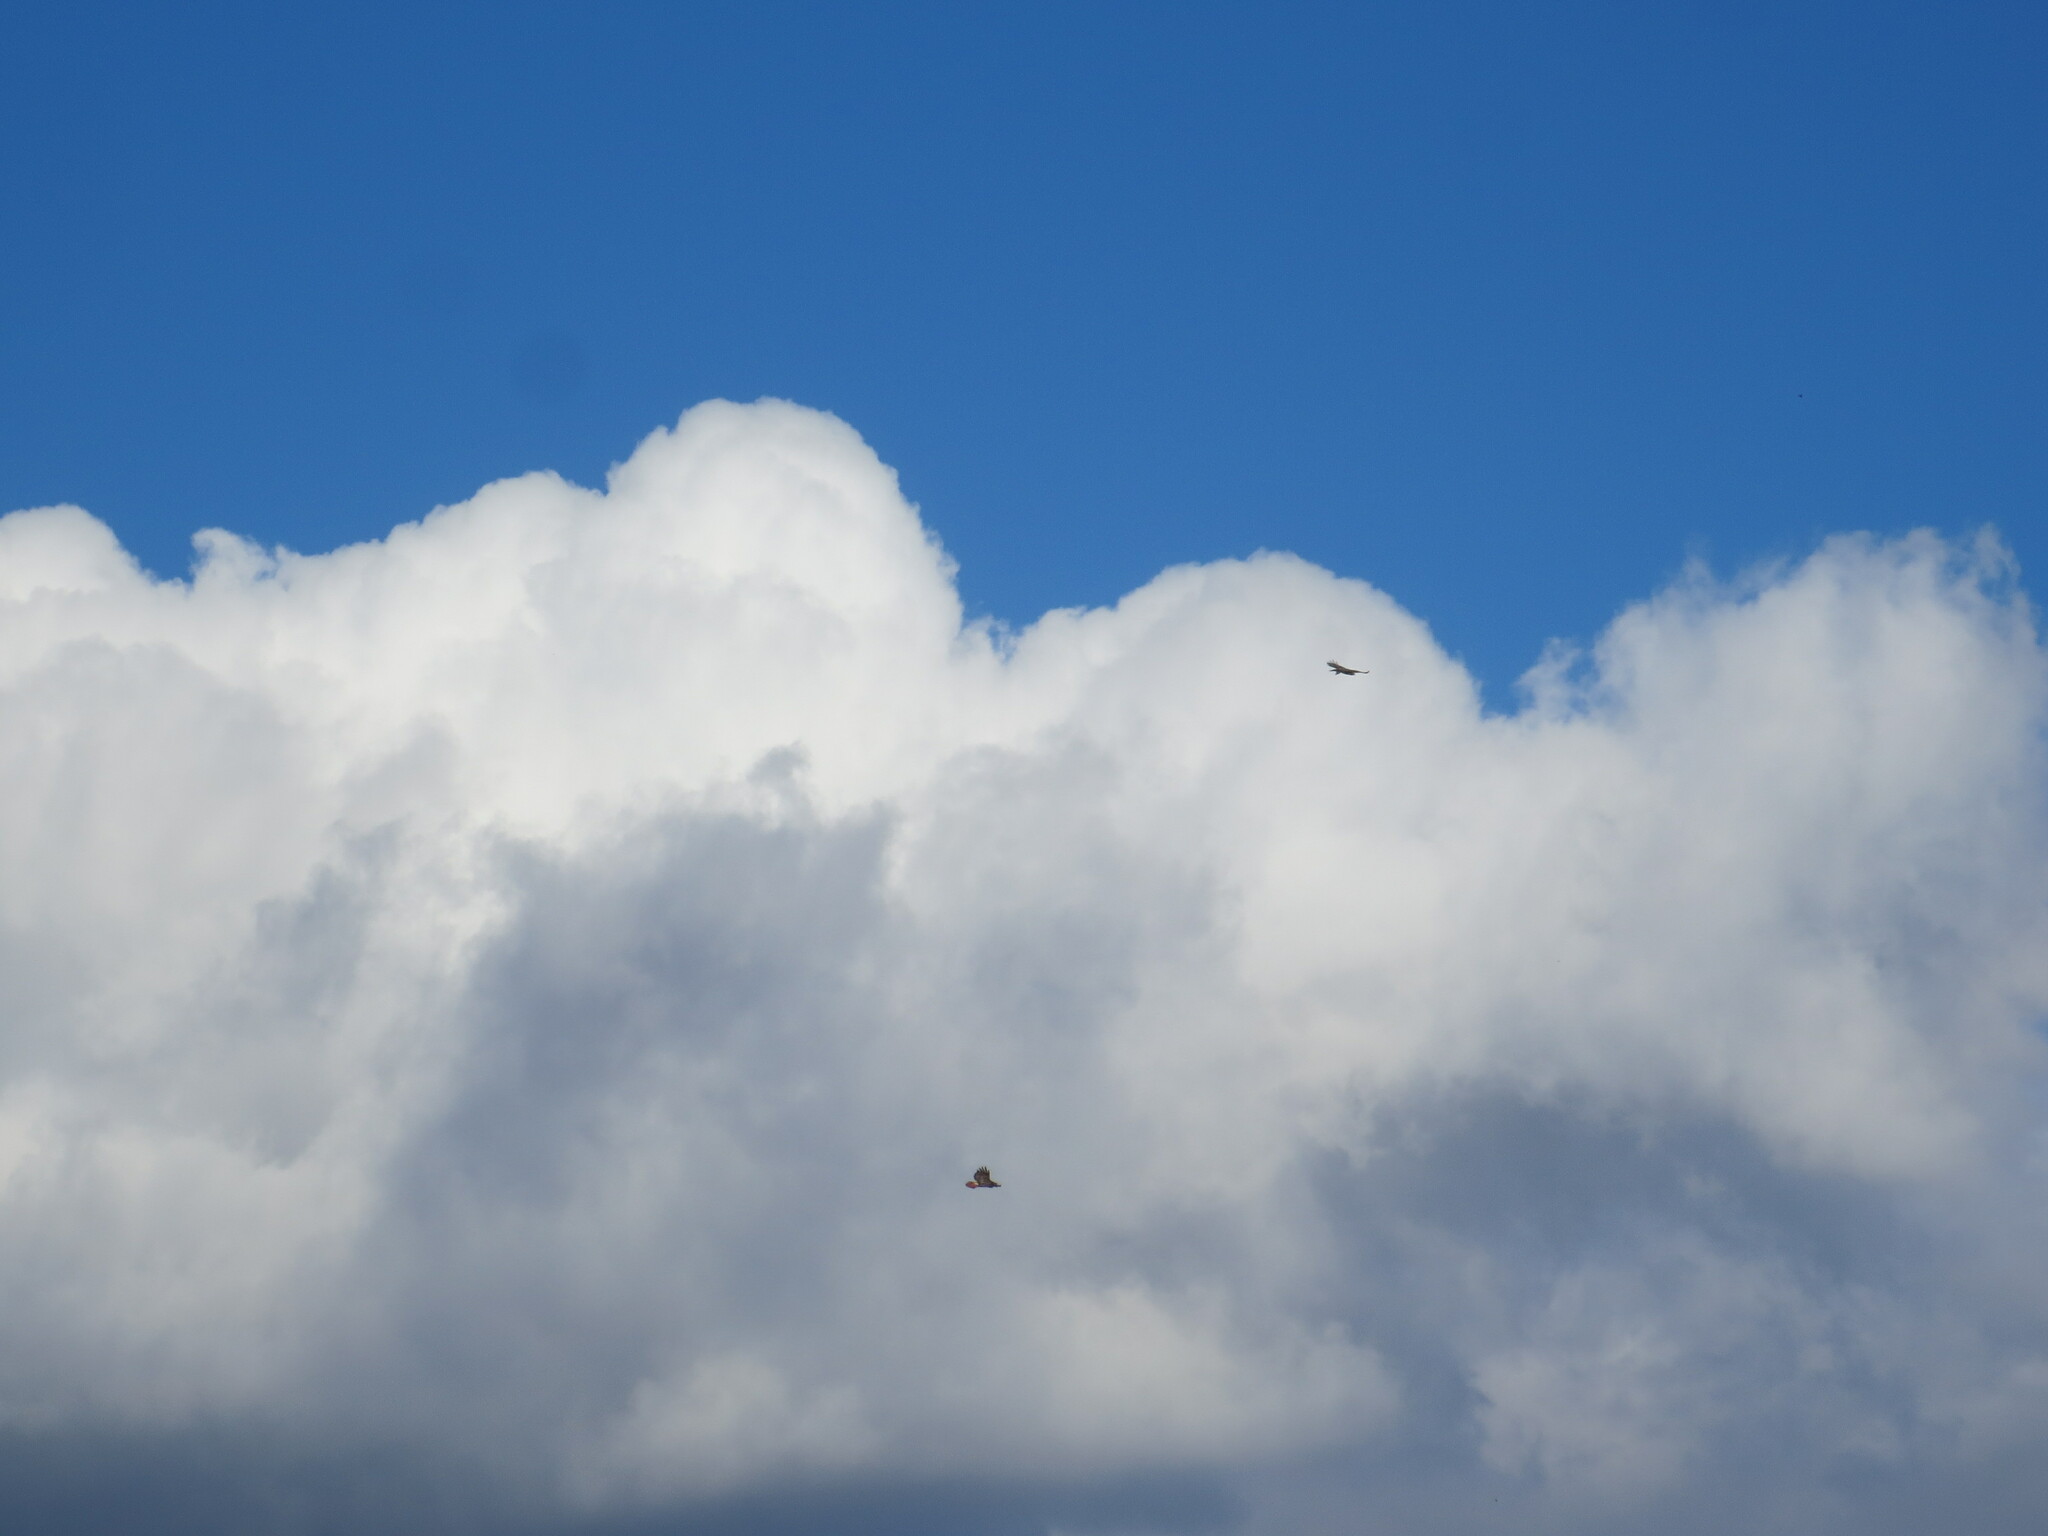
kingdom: Animalia
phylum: Chordata
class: Aves
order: Accipitriformes
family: Accipitridae
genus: Buteo
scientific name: Buteo jamaicensis
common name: Red-tailed hawk
